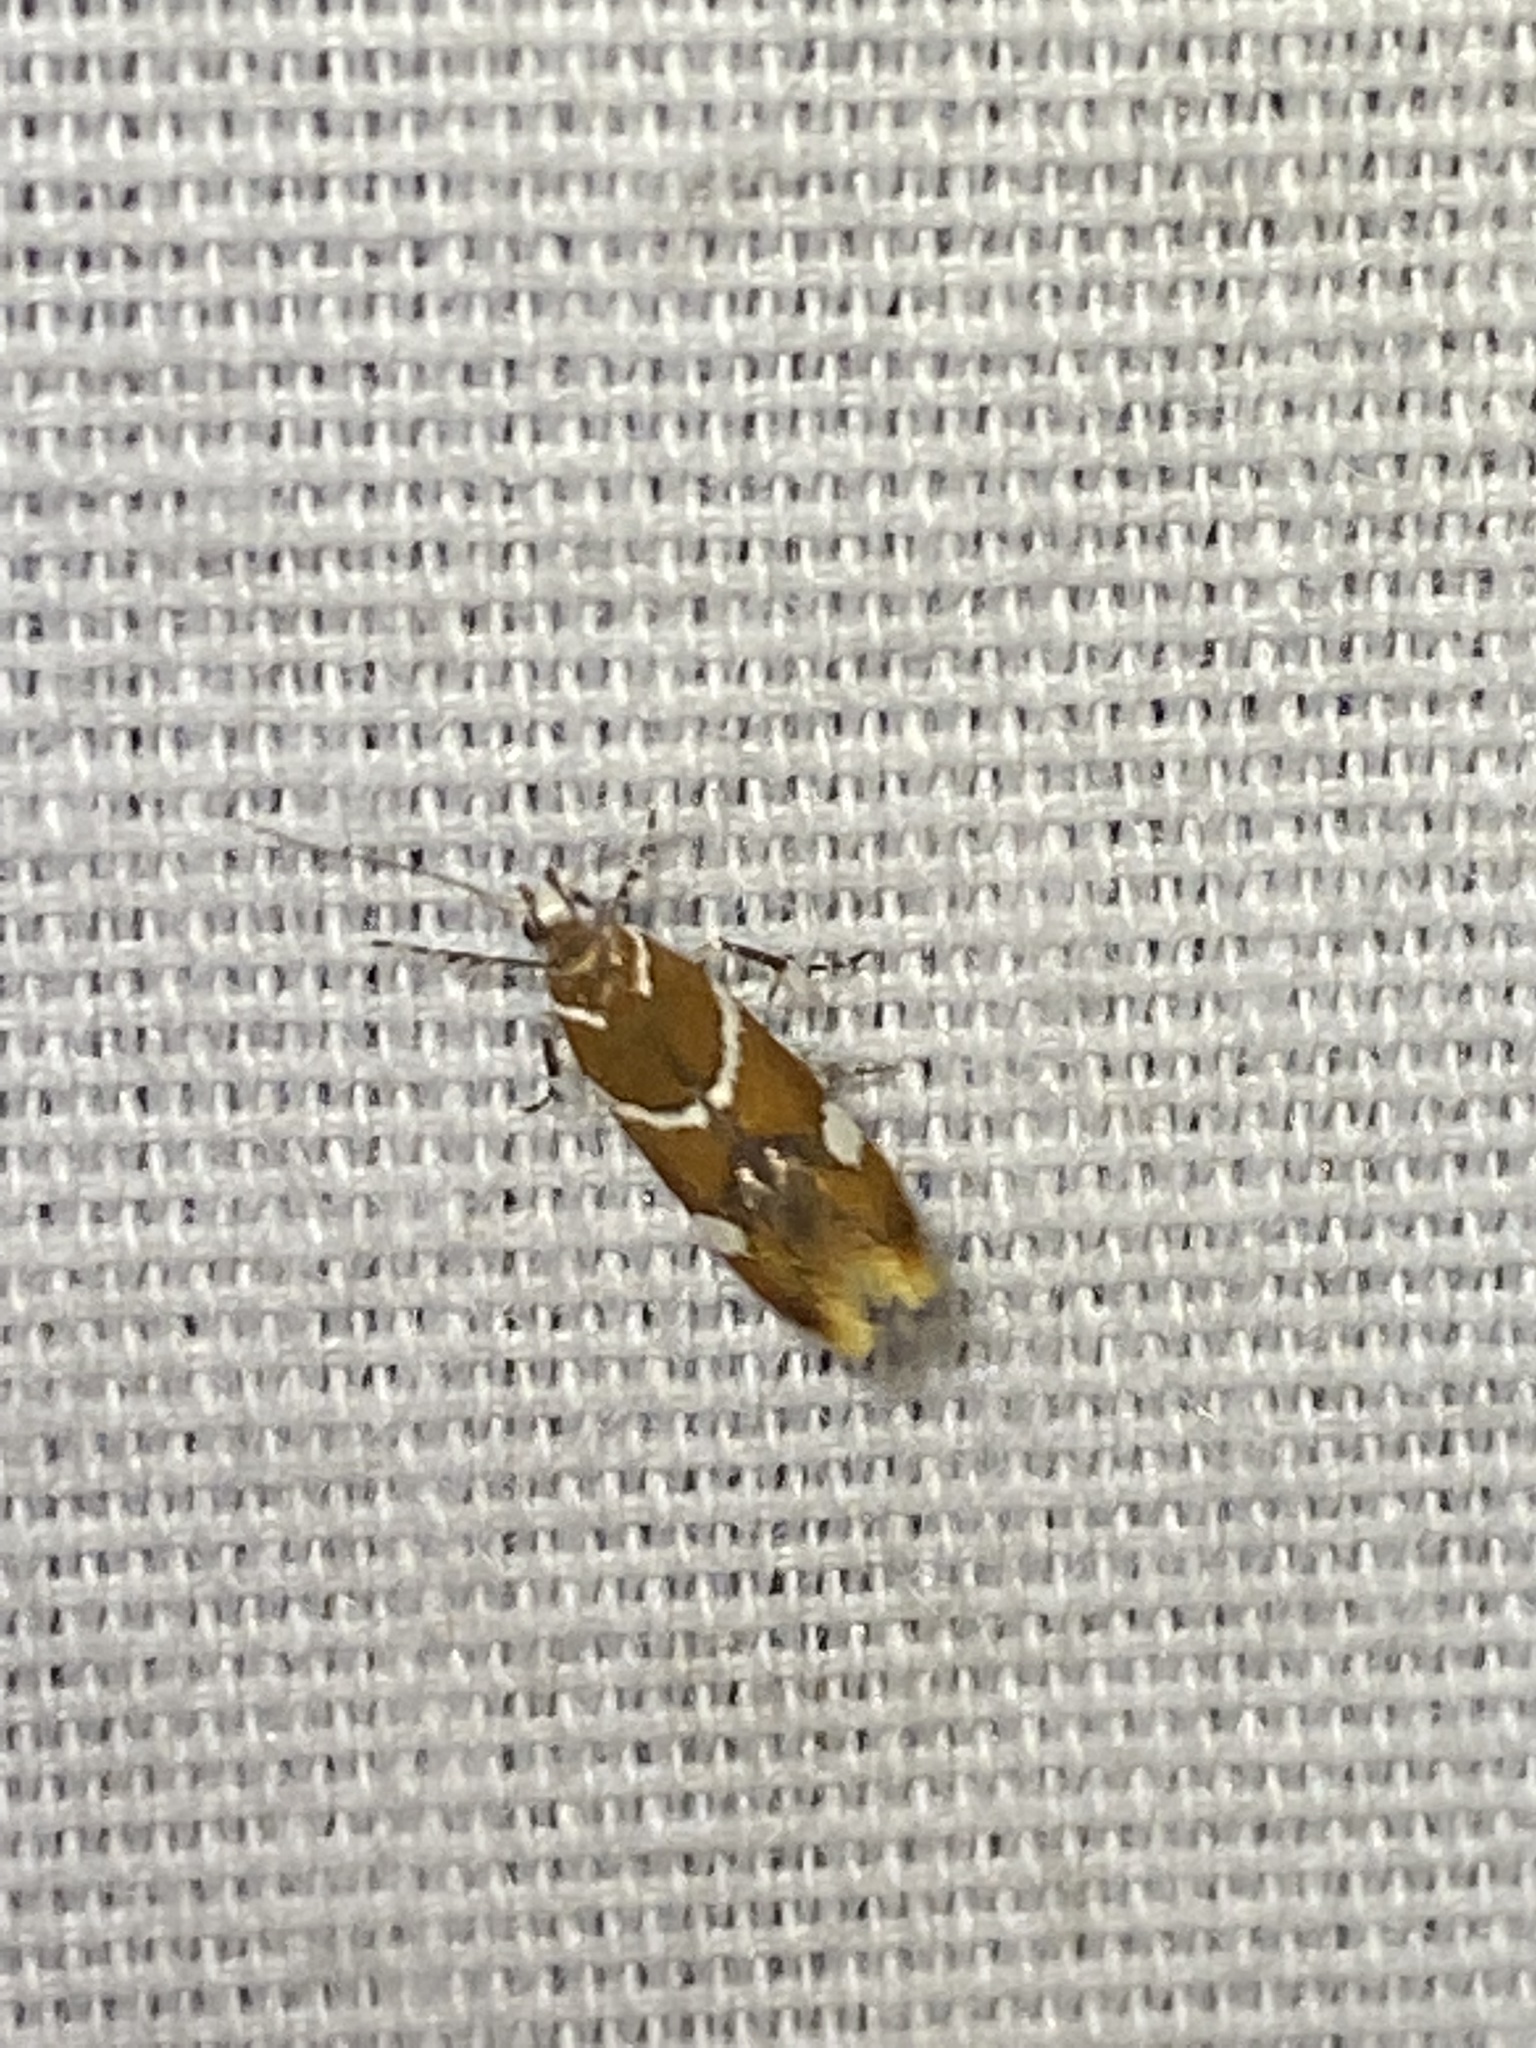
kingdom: Animalia
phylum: Arthropoda
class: Insecta
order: Lepidoptera
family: Oecophoridae
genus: Promalactis
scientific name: Promalactis suzukiella
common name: Moth
